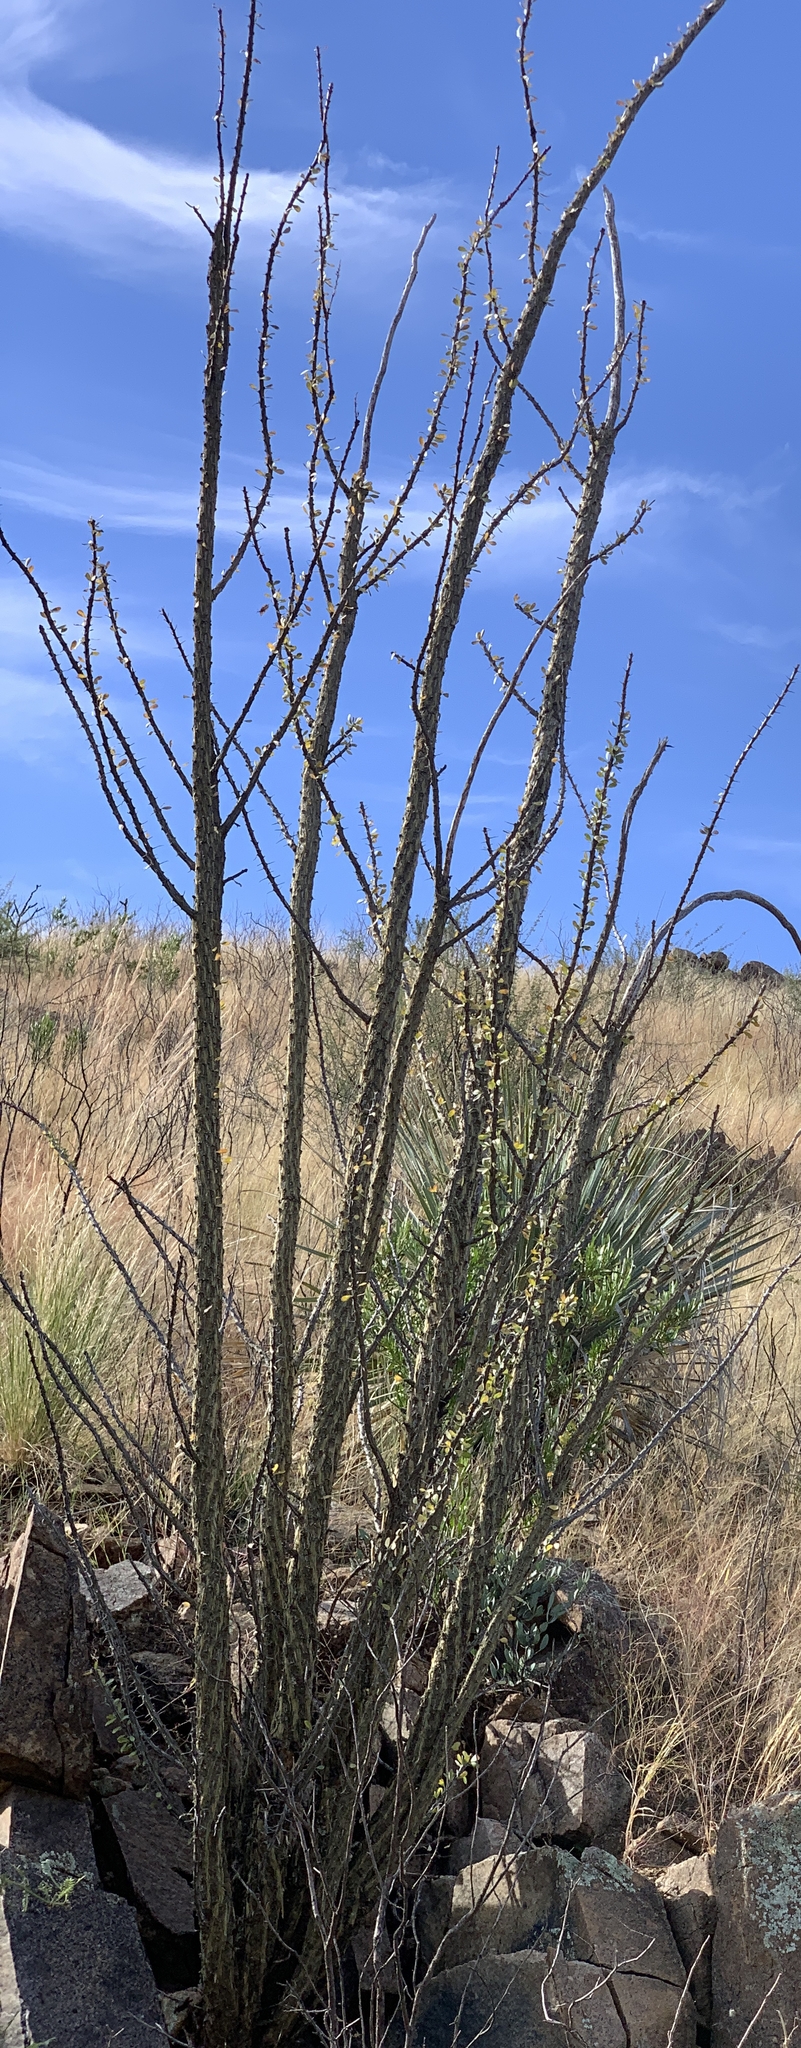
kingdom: Plantae
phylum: Tracheophyta
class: Magnoliopsida
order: Ericales
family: Fouquieriaceae
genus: Fouquieria
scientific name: Fouquieria splendens
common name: Vine-cactus
